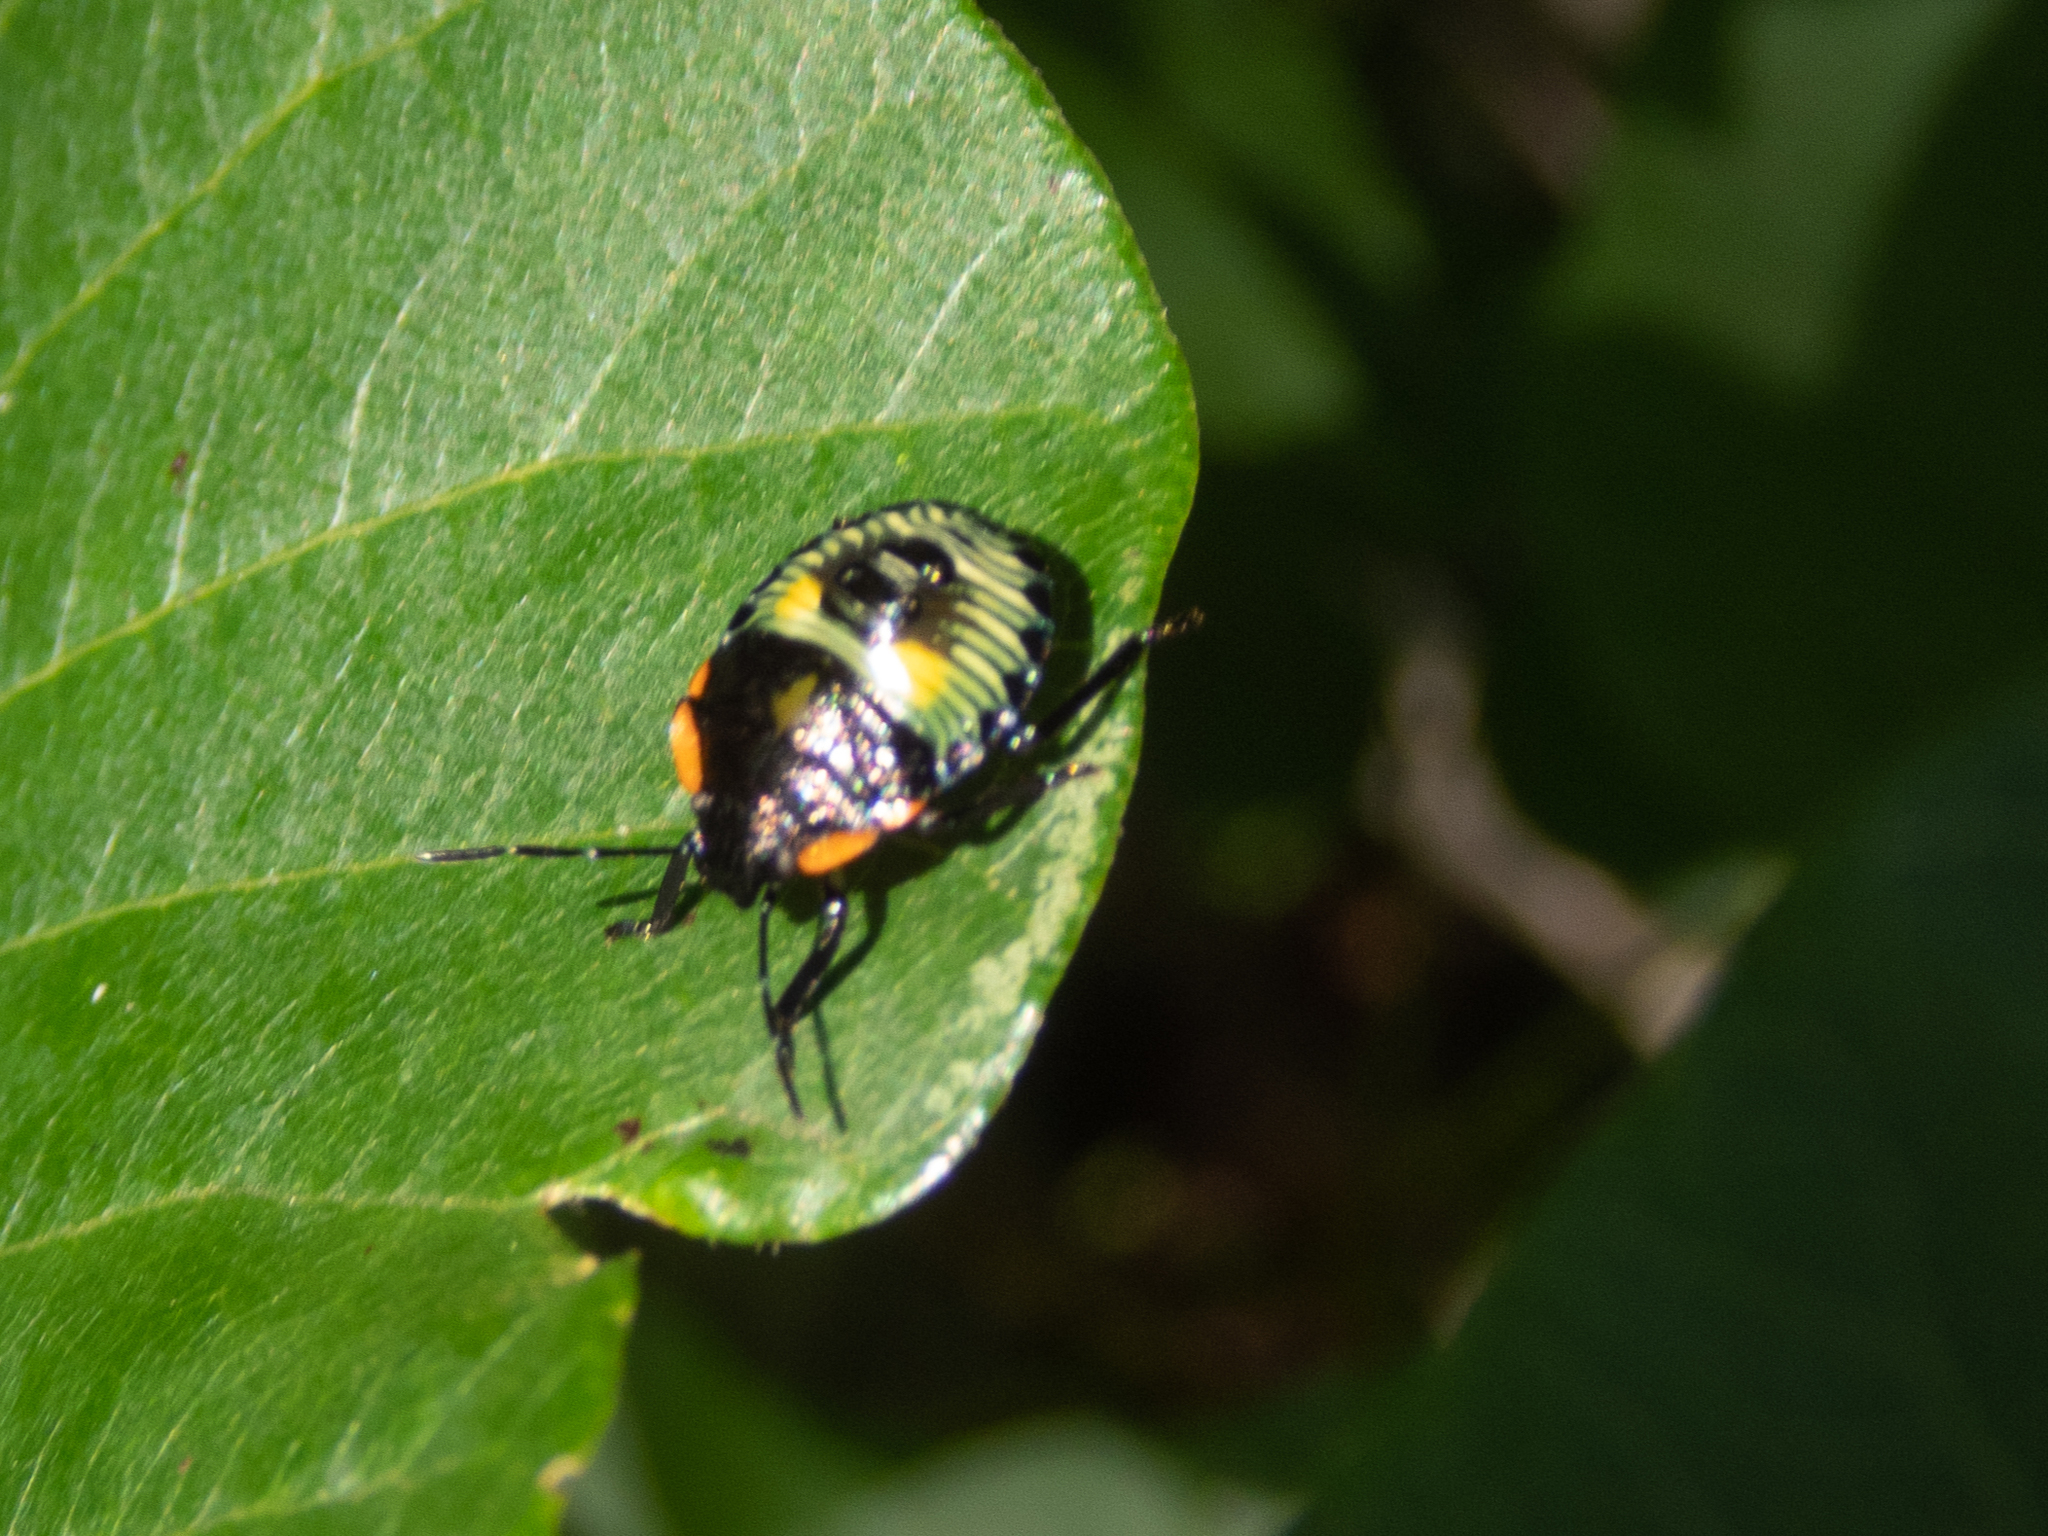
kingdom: Animalia
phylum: Arthropoda
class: Insecta
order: Hemiptera
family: Pentatomidae
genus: Chinavia
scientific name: Chinavia hilaris
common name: Green stink bug
